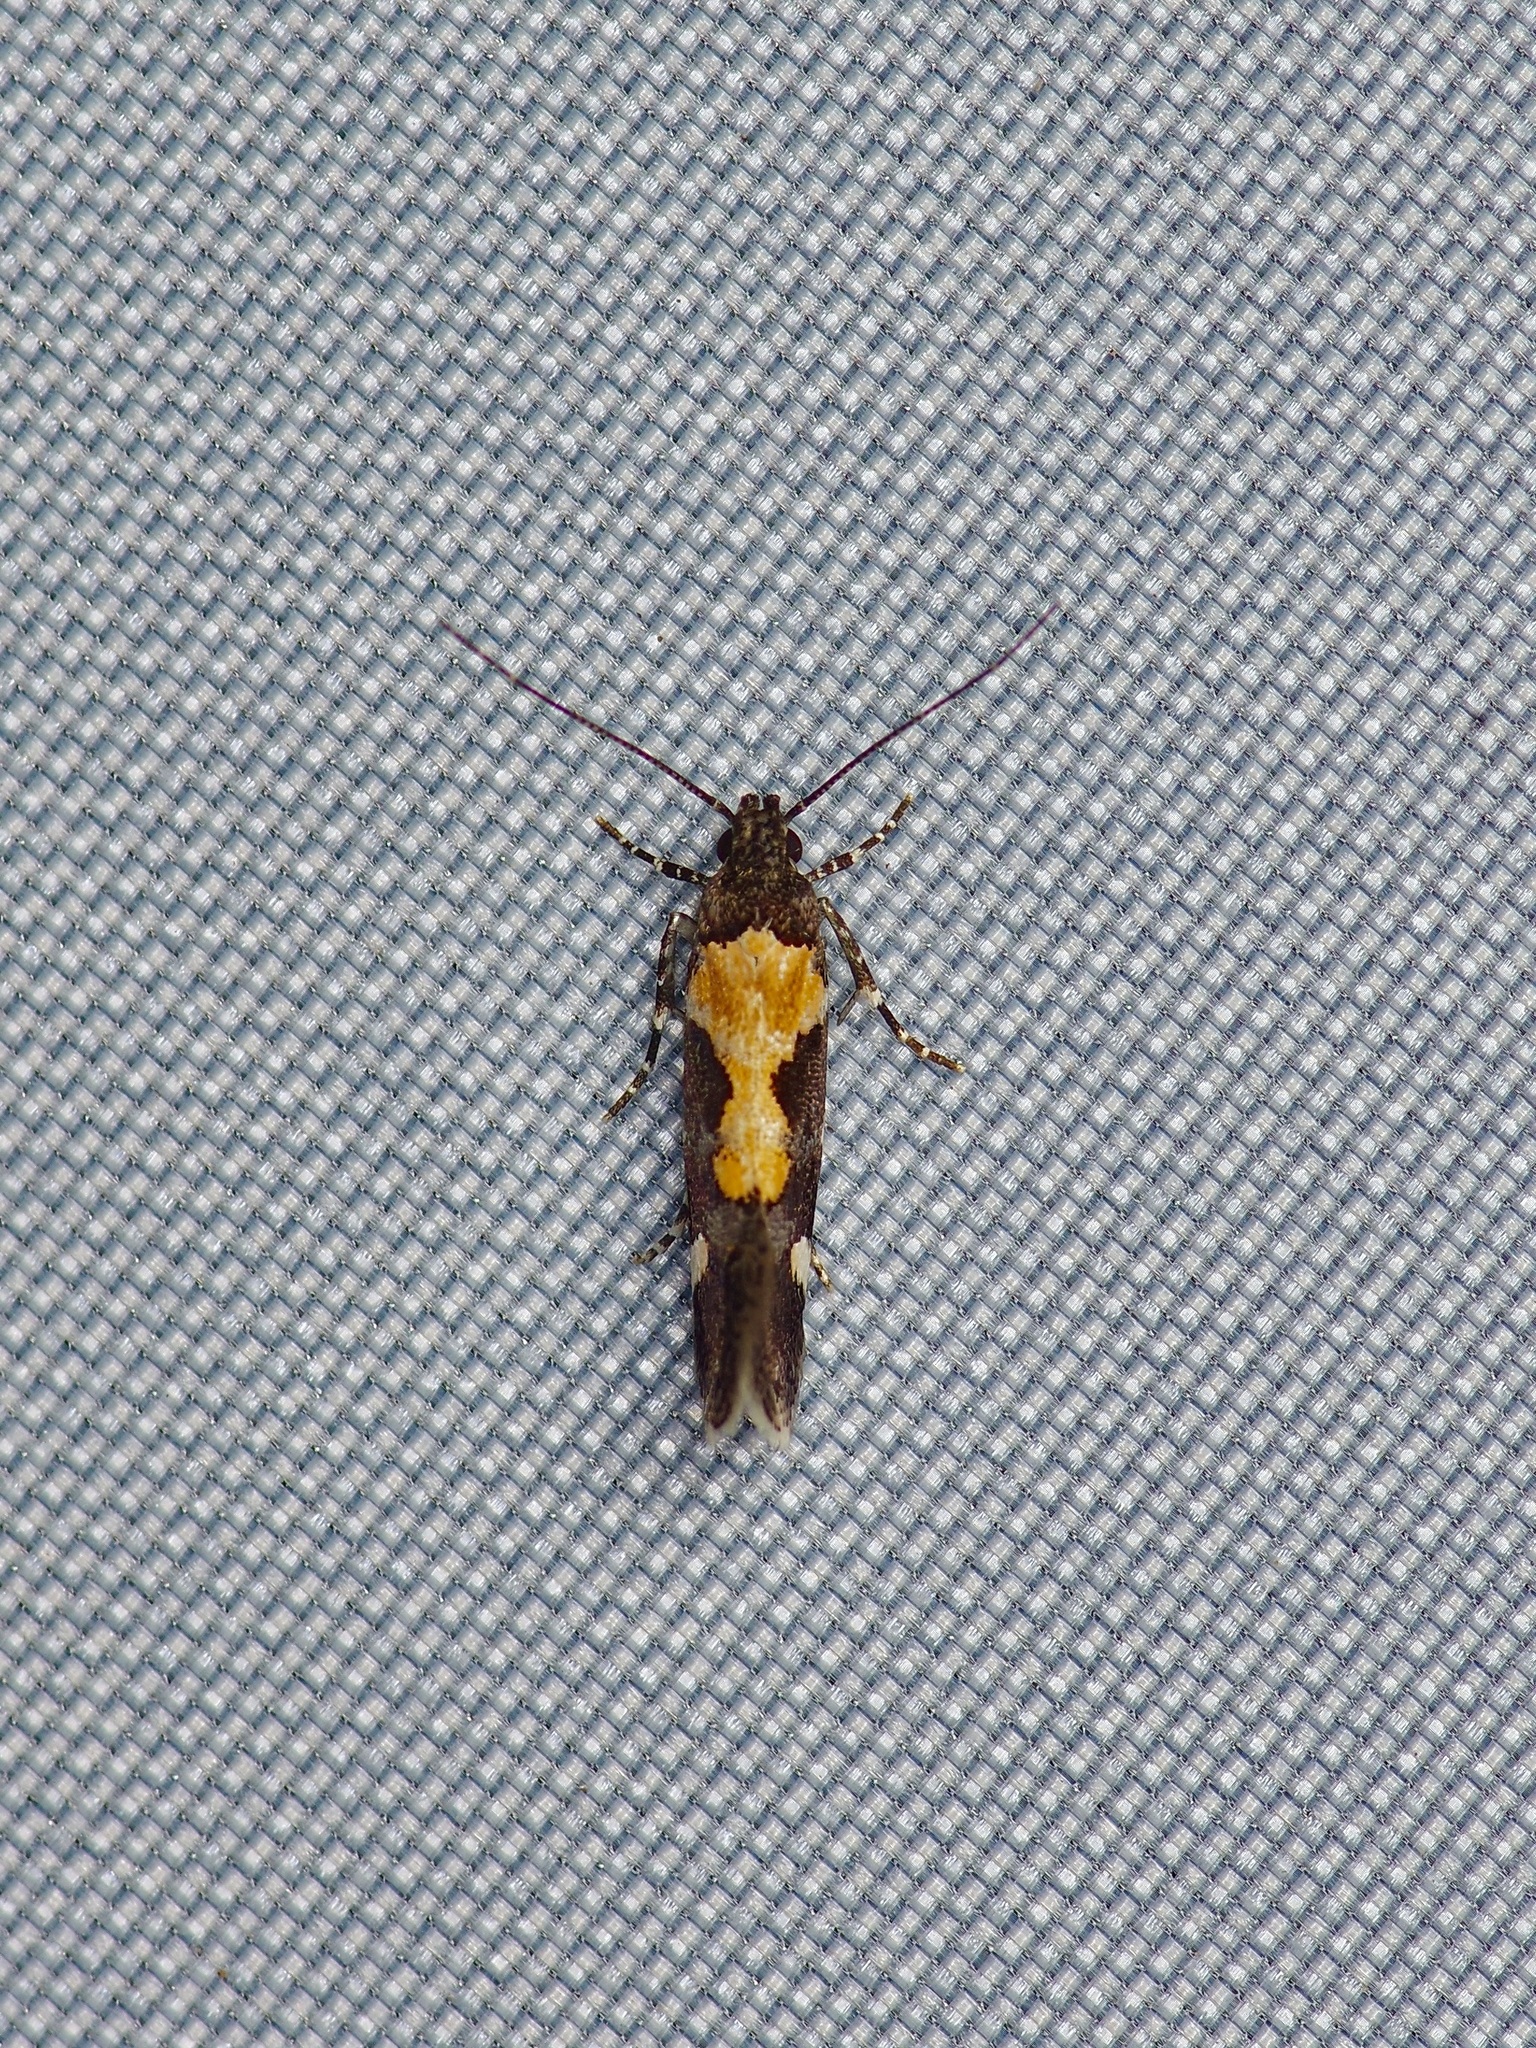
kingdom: Animalia
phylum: Arthropoda
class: Insecta
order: Lepidoptera
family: Gelechiidae
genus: Stegasta
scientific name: Stegasta bosqueella
